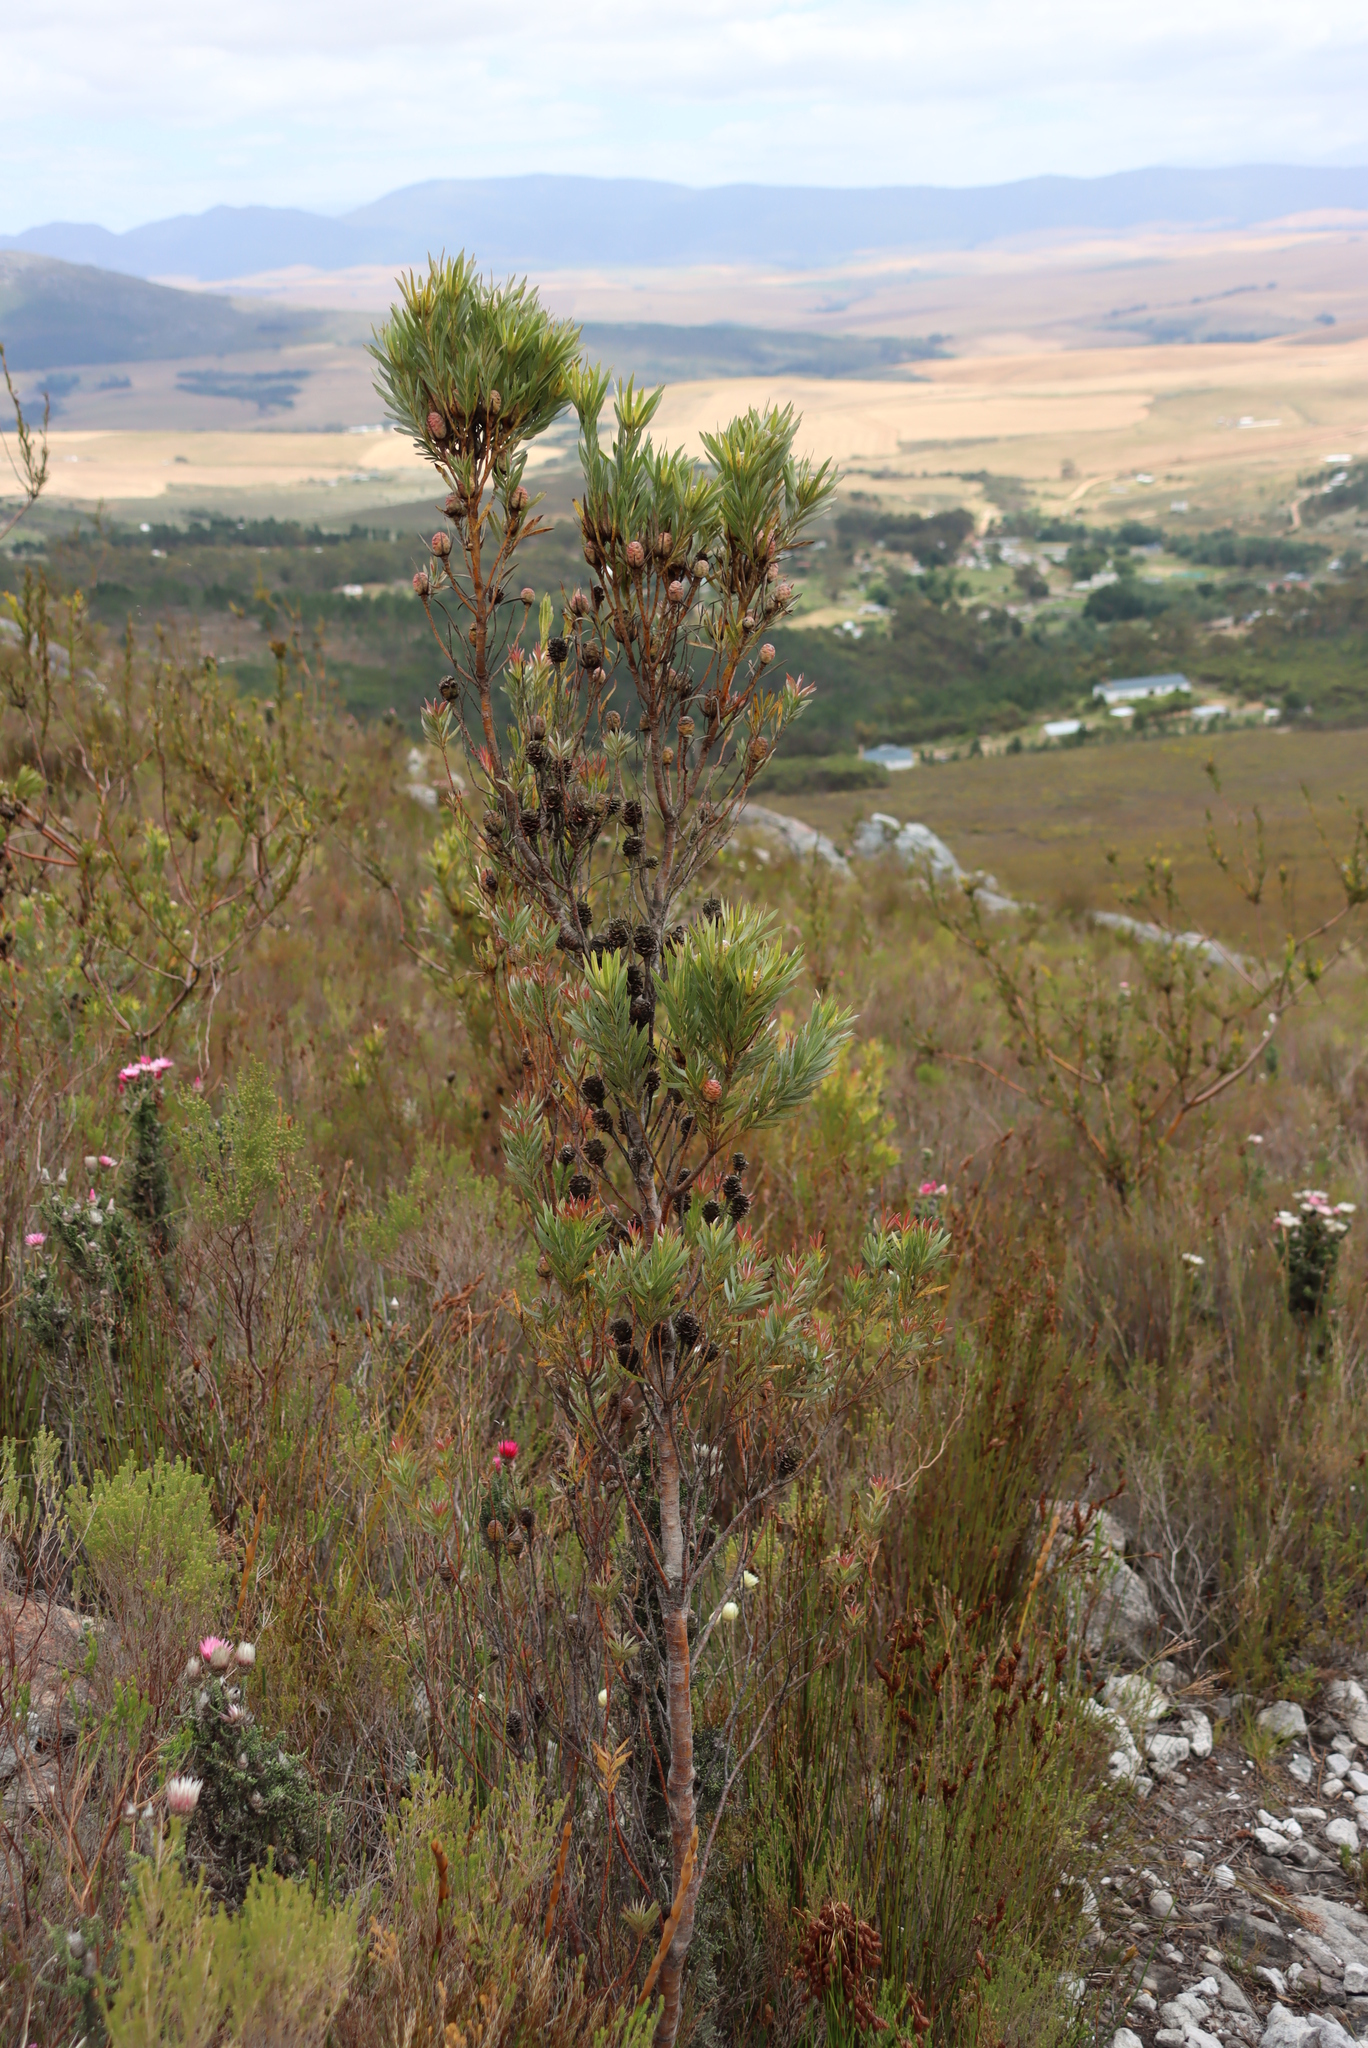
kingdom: Plantae
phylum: Tracheophyta
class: Magnoliopsida
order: Proteales
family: Proteaceae
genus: Leucadendron
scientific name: Leucadendron xanthoconus
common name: Sickle-leaf conebush
